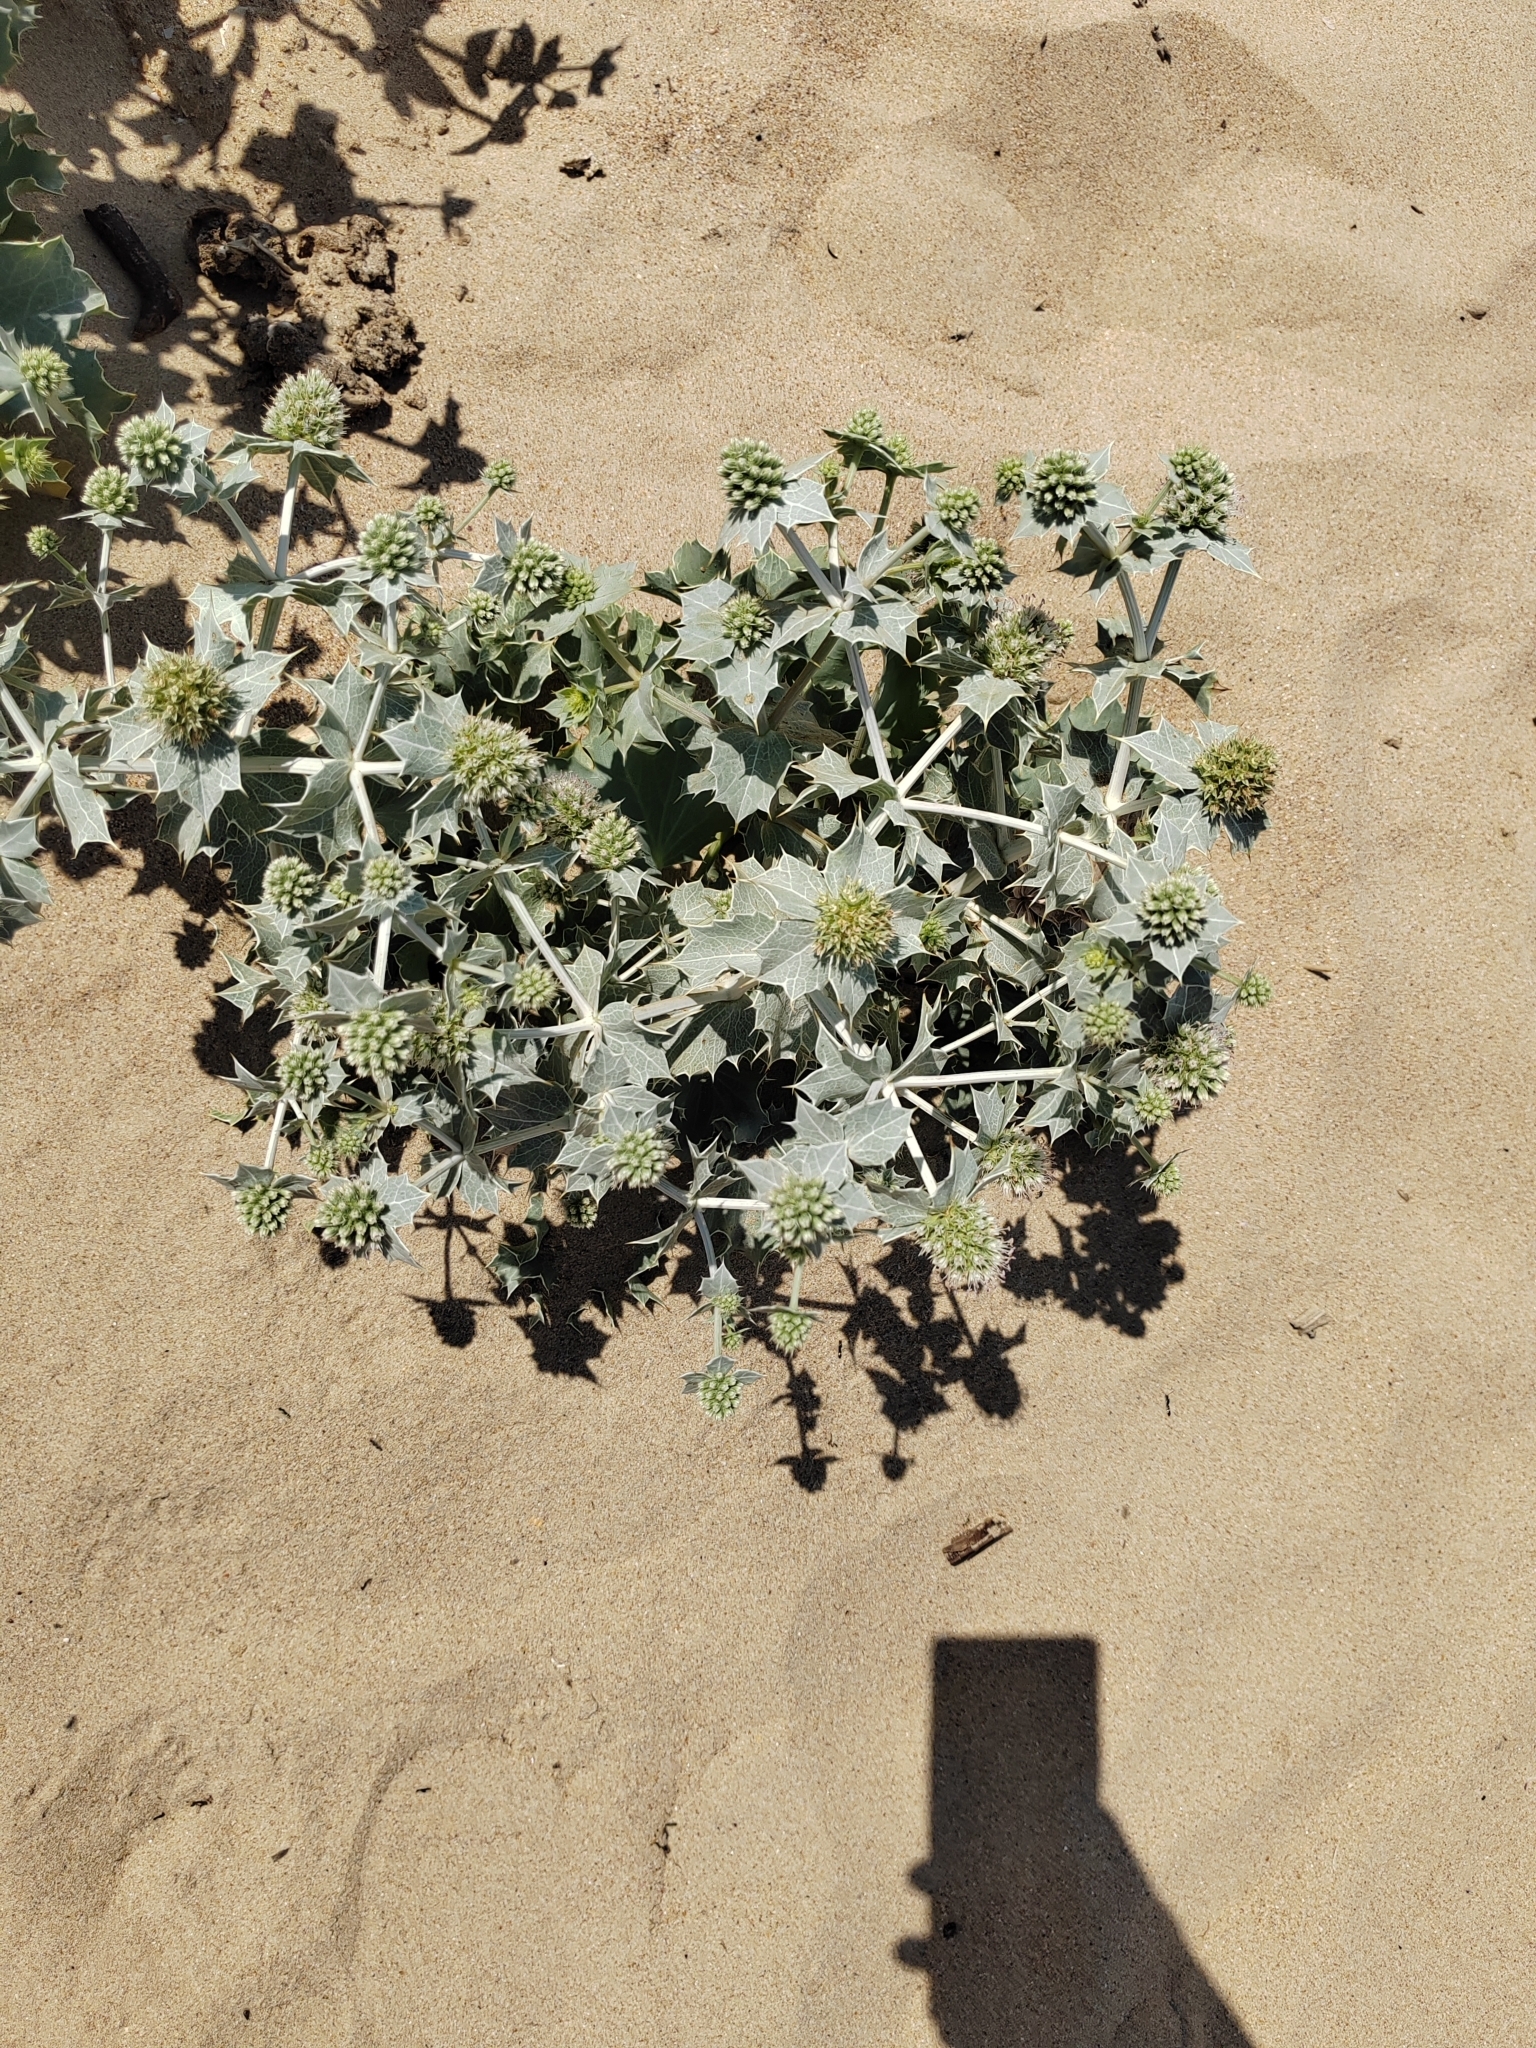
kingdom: Plantae
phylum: Tracheophyta
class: Magnoliopsida
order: Apiales
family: Apiaceae
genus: Eryngium
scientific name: Eryngium maritimum
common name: Sea-holly
